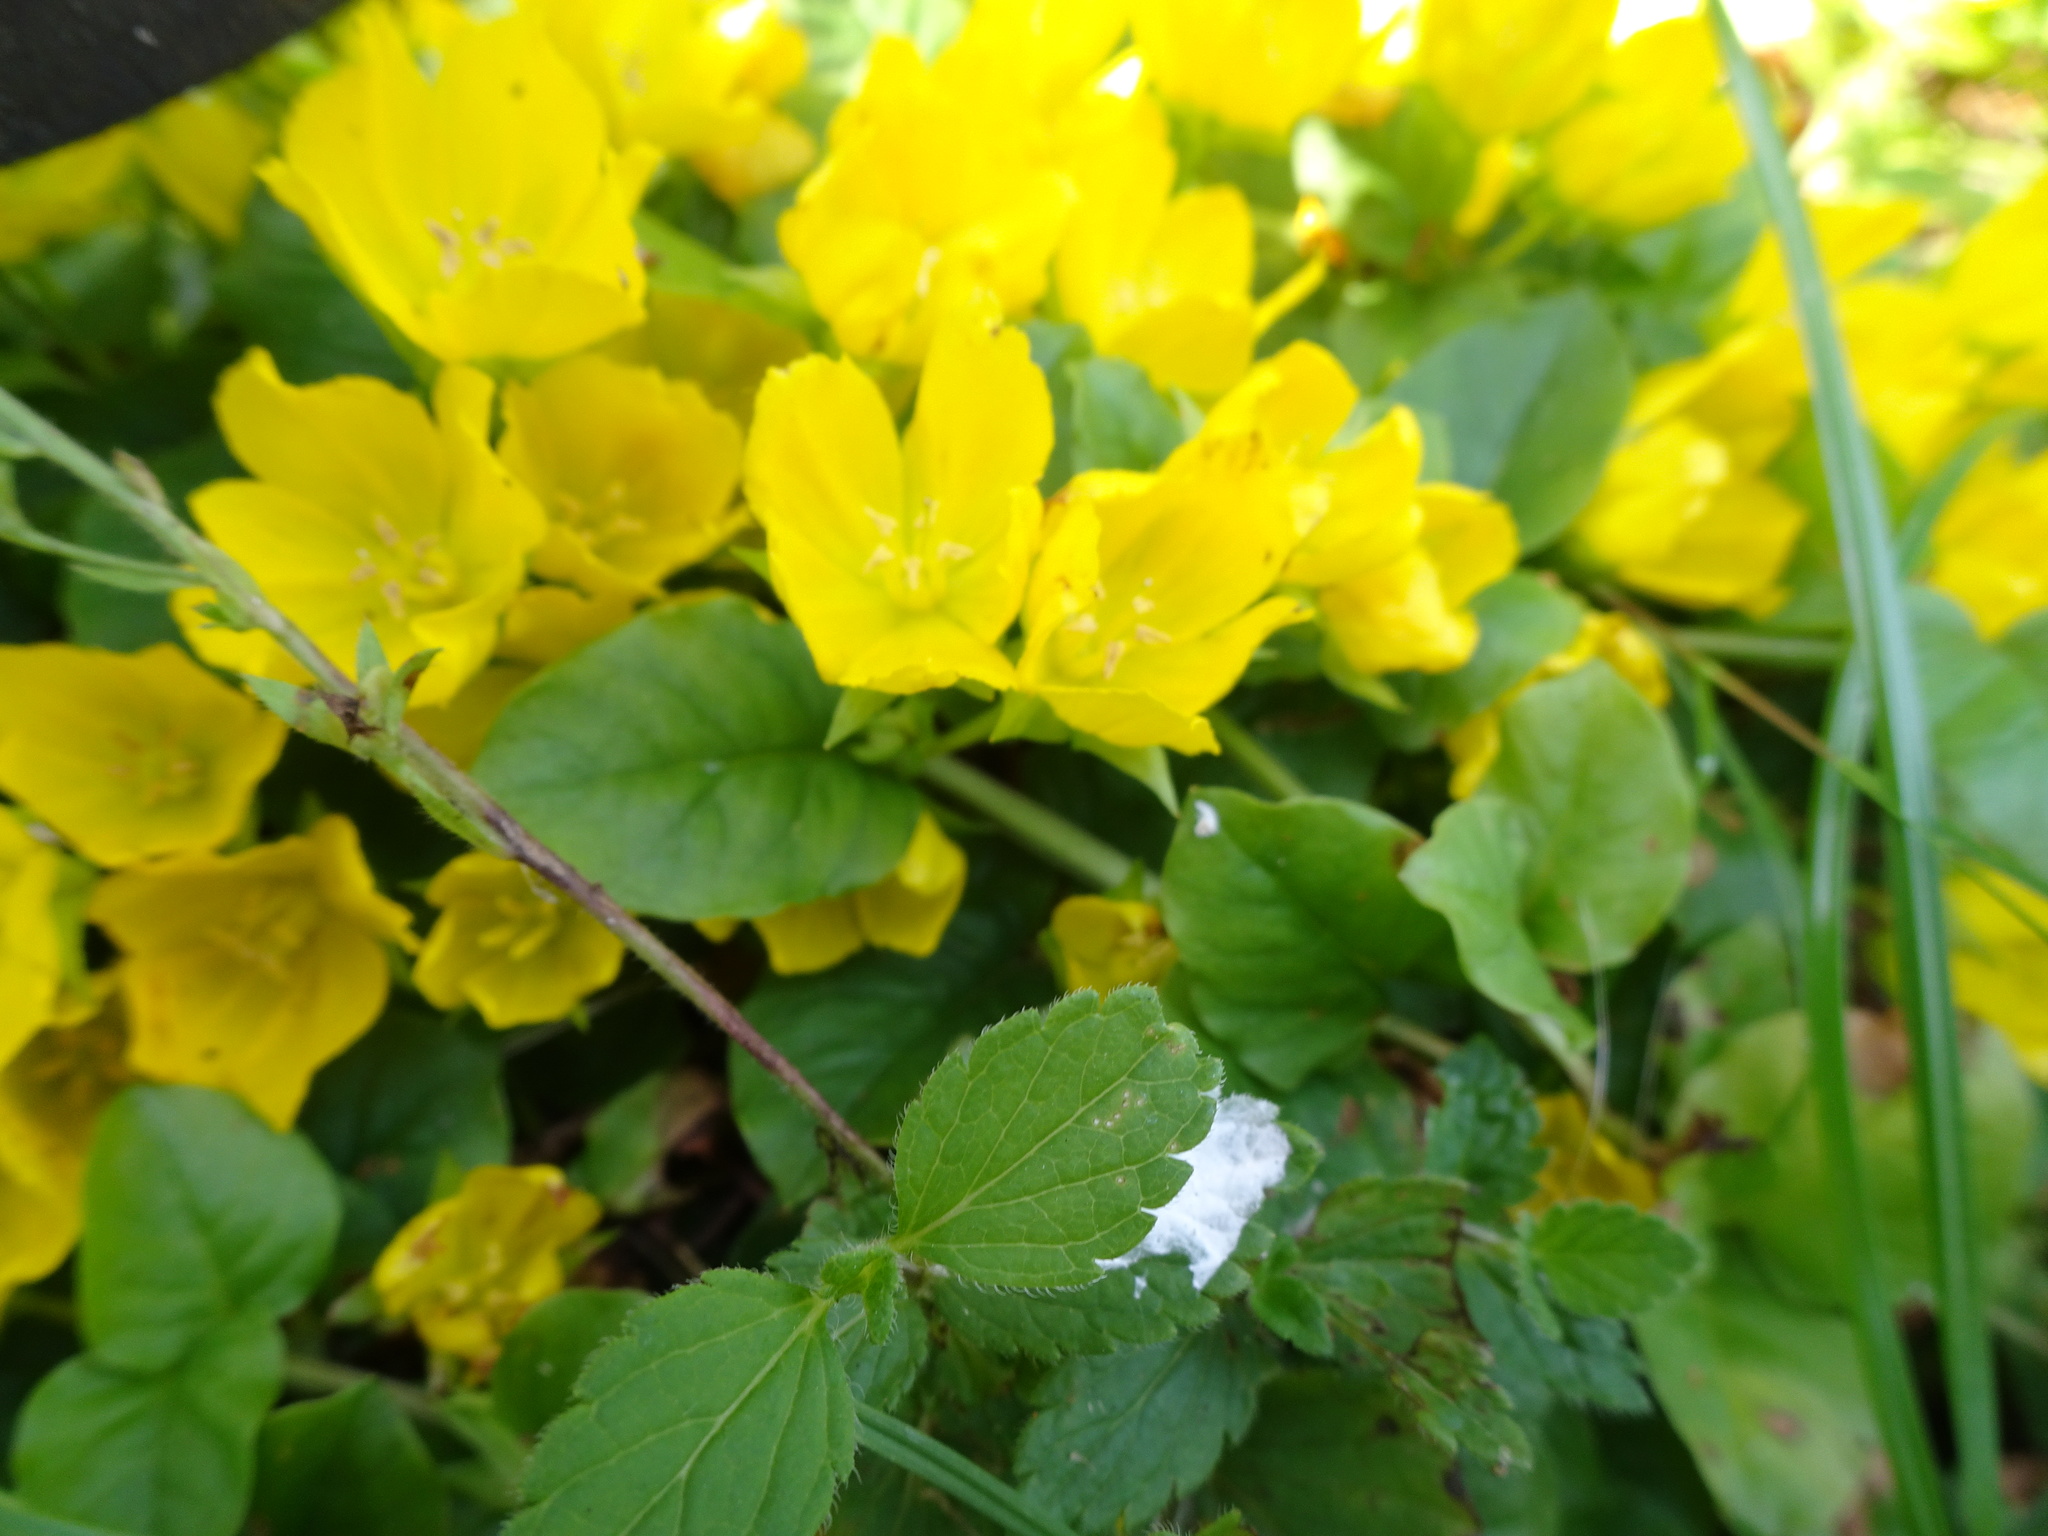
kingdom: Plantae
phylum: Tracheophyta
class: Magnoliopsida
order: Ericales
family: Primulaceae
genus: Lysimachia
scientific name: Lysimachia nummularia
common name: Moneywort
